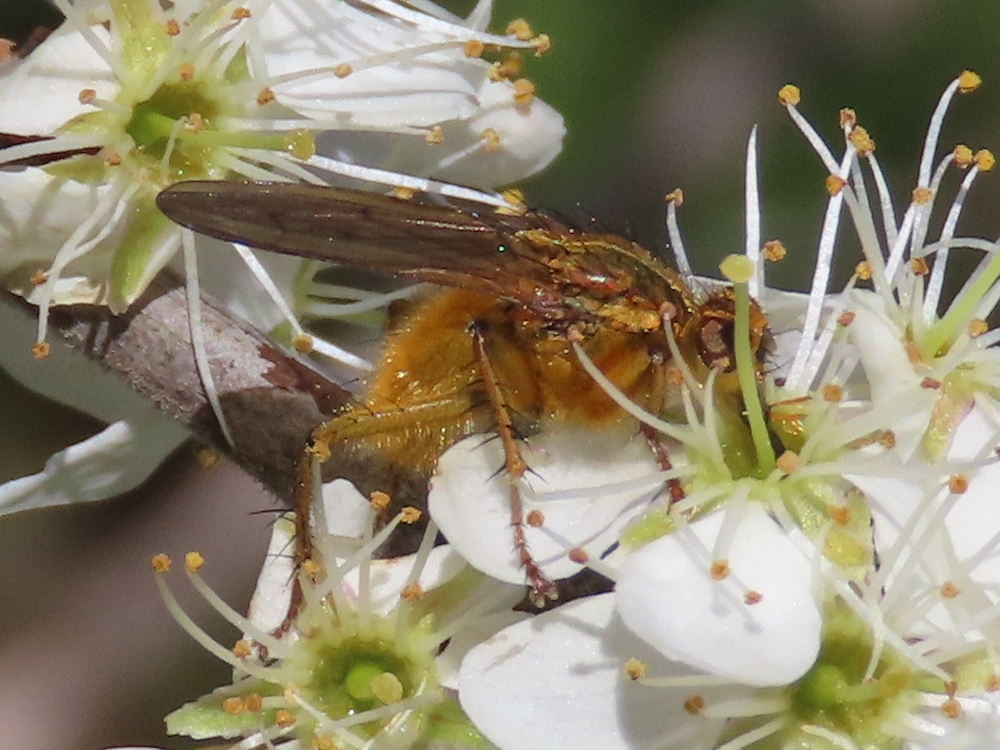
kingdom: Animalia
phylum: Arthropoda
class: Insecta
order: Diptera
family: Scathophagidae
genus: Scathophaga
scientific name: Scathophaga stercoraria
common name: Yellow dung fly
